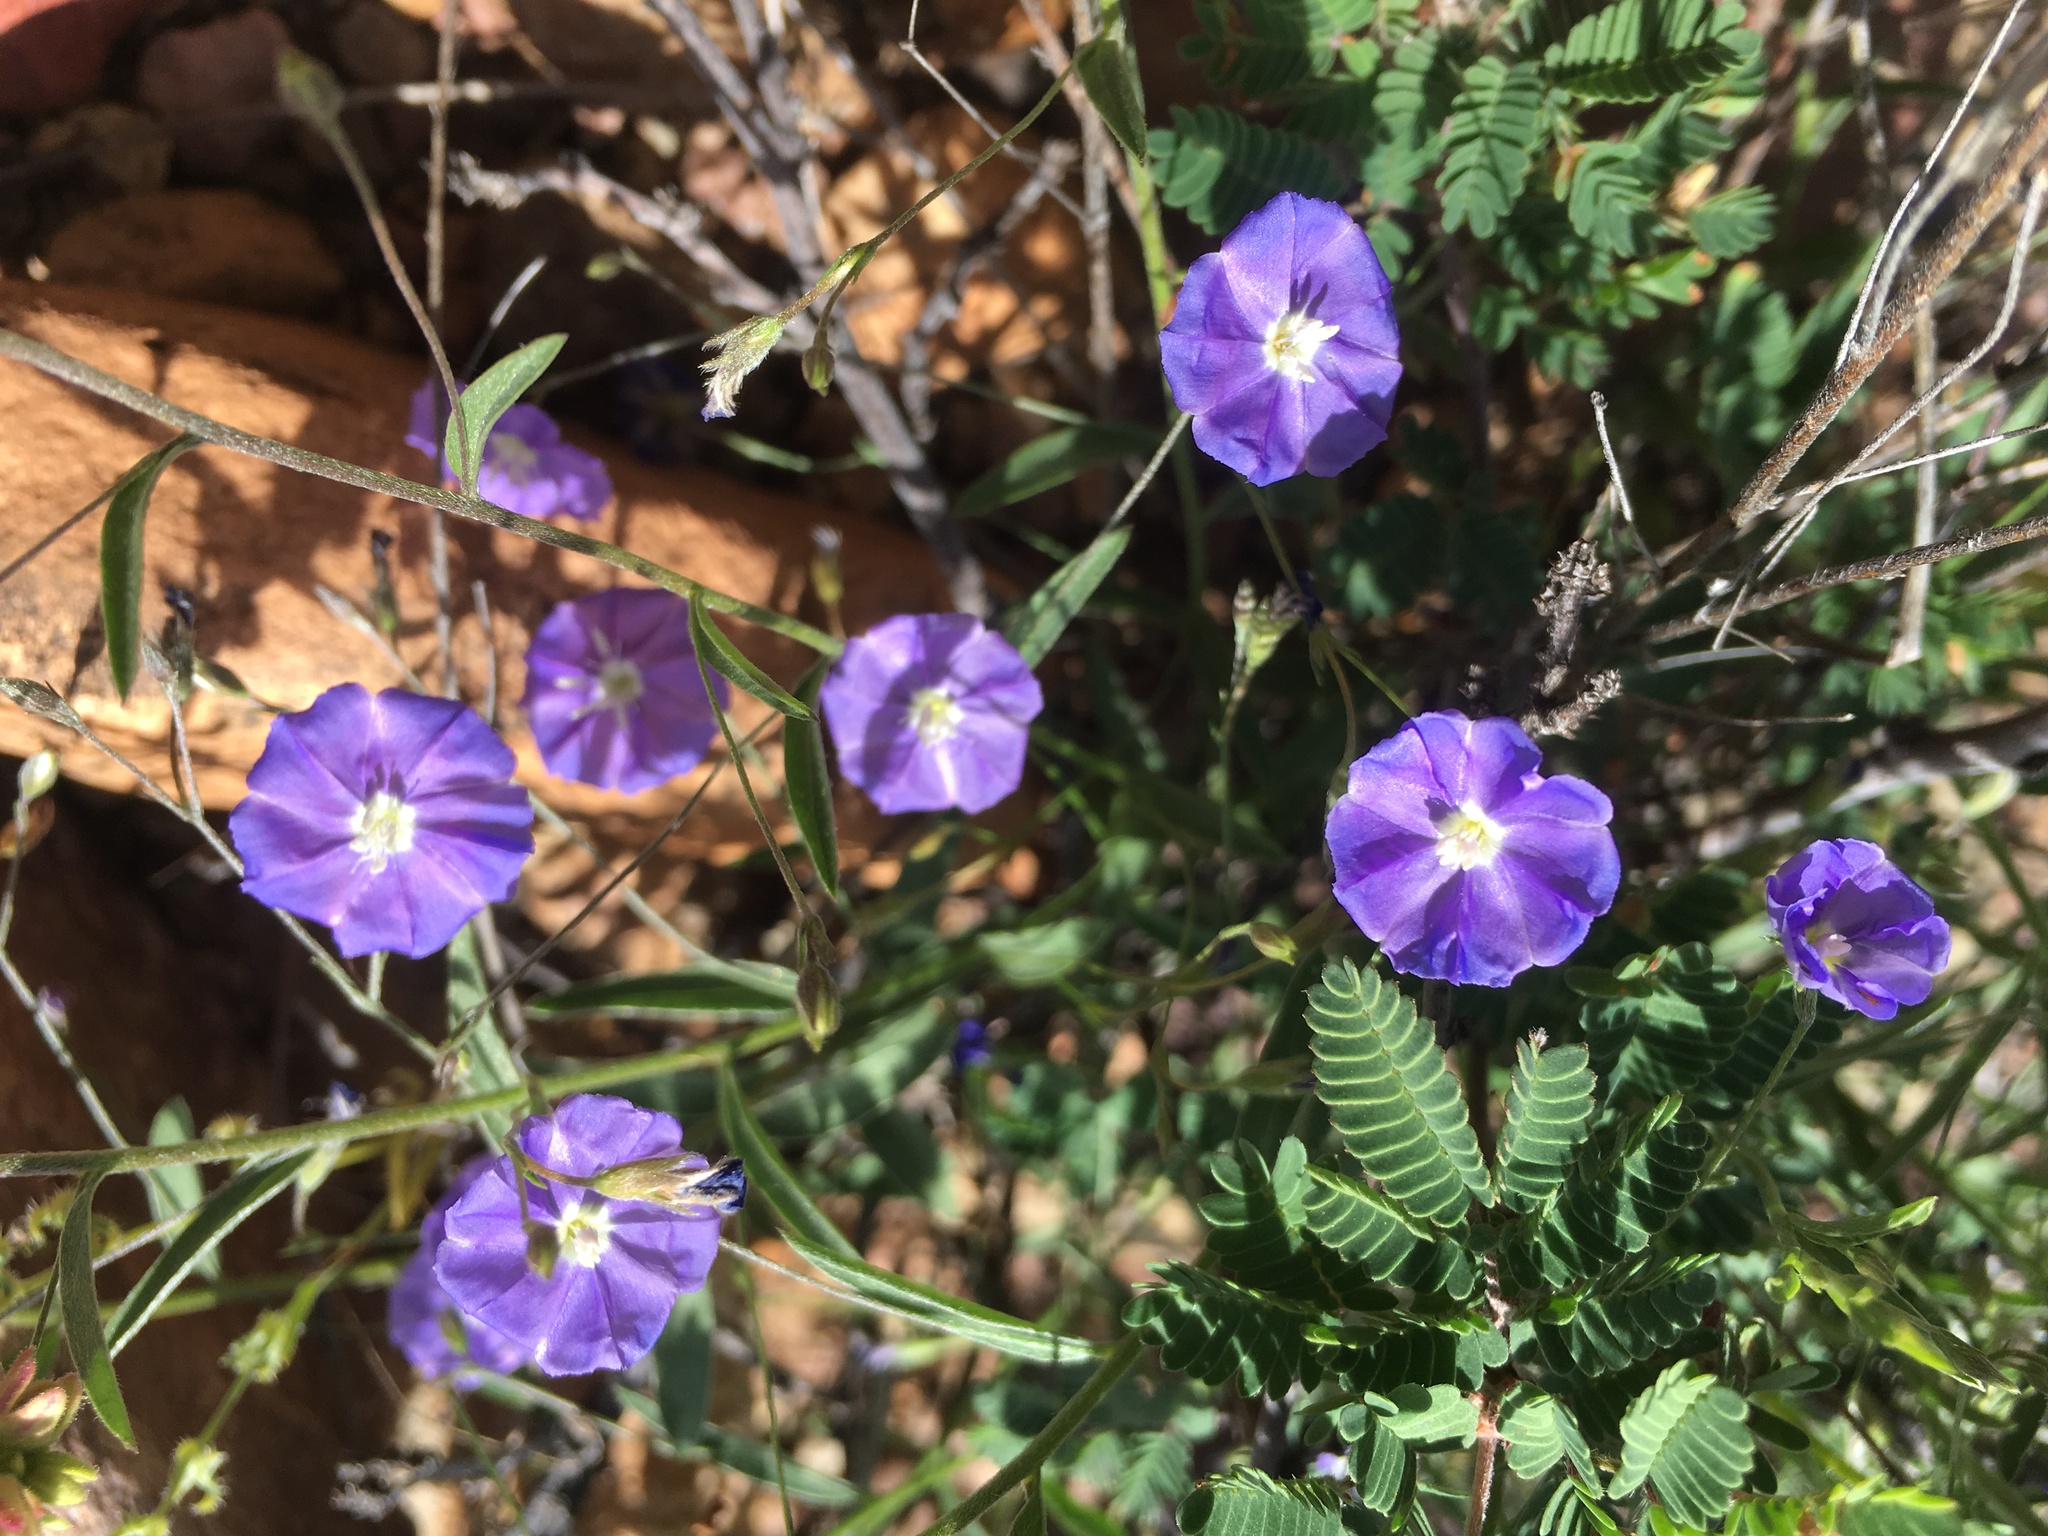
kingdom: Plantae
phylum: Tracheophyta
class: Magnoliopsida
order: Solanales
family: Convolvulaceae
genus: Evolvulus
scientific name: Evolvulus arizonicus
